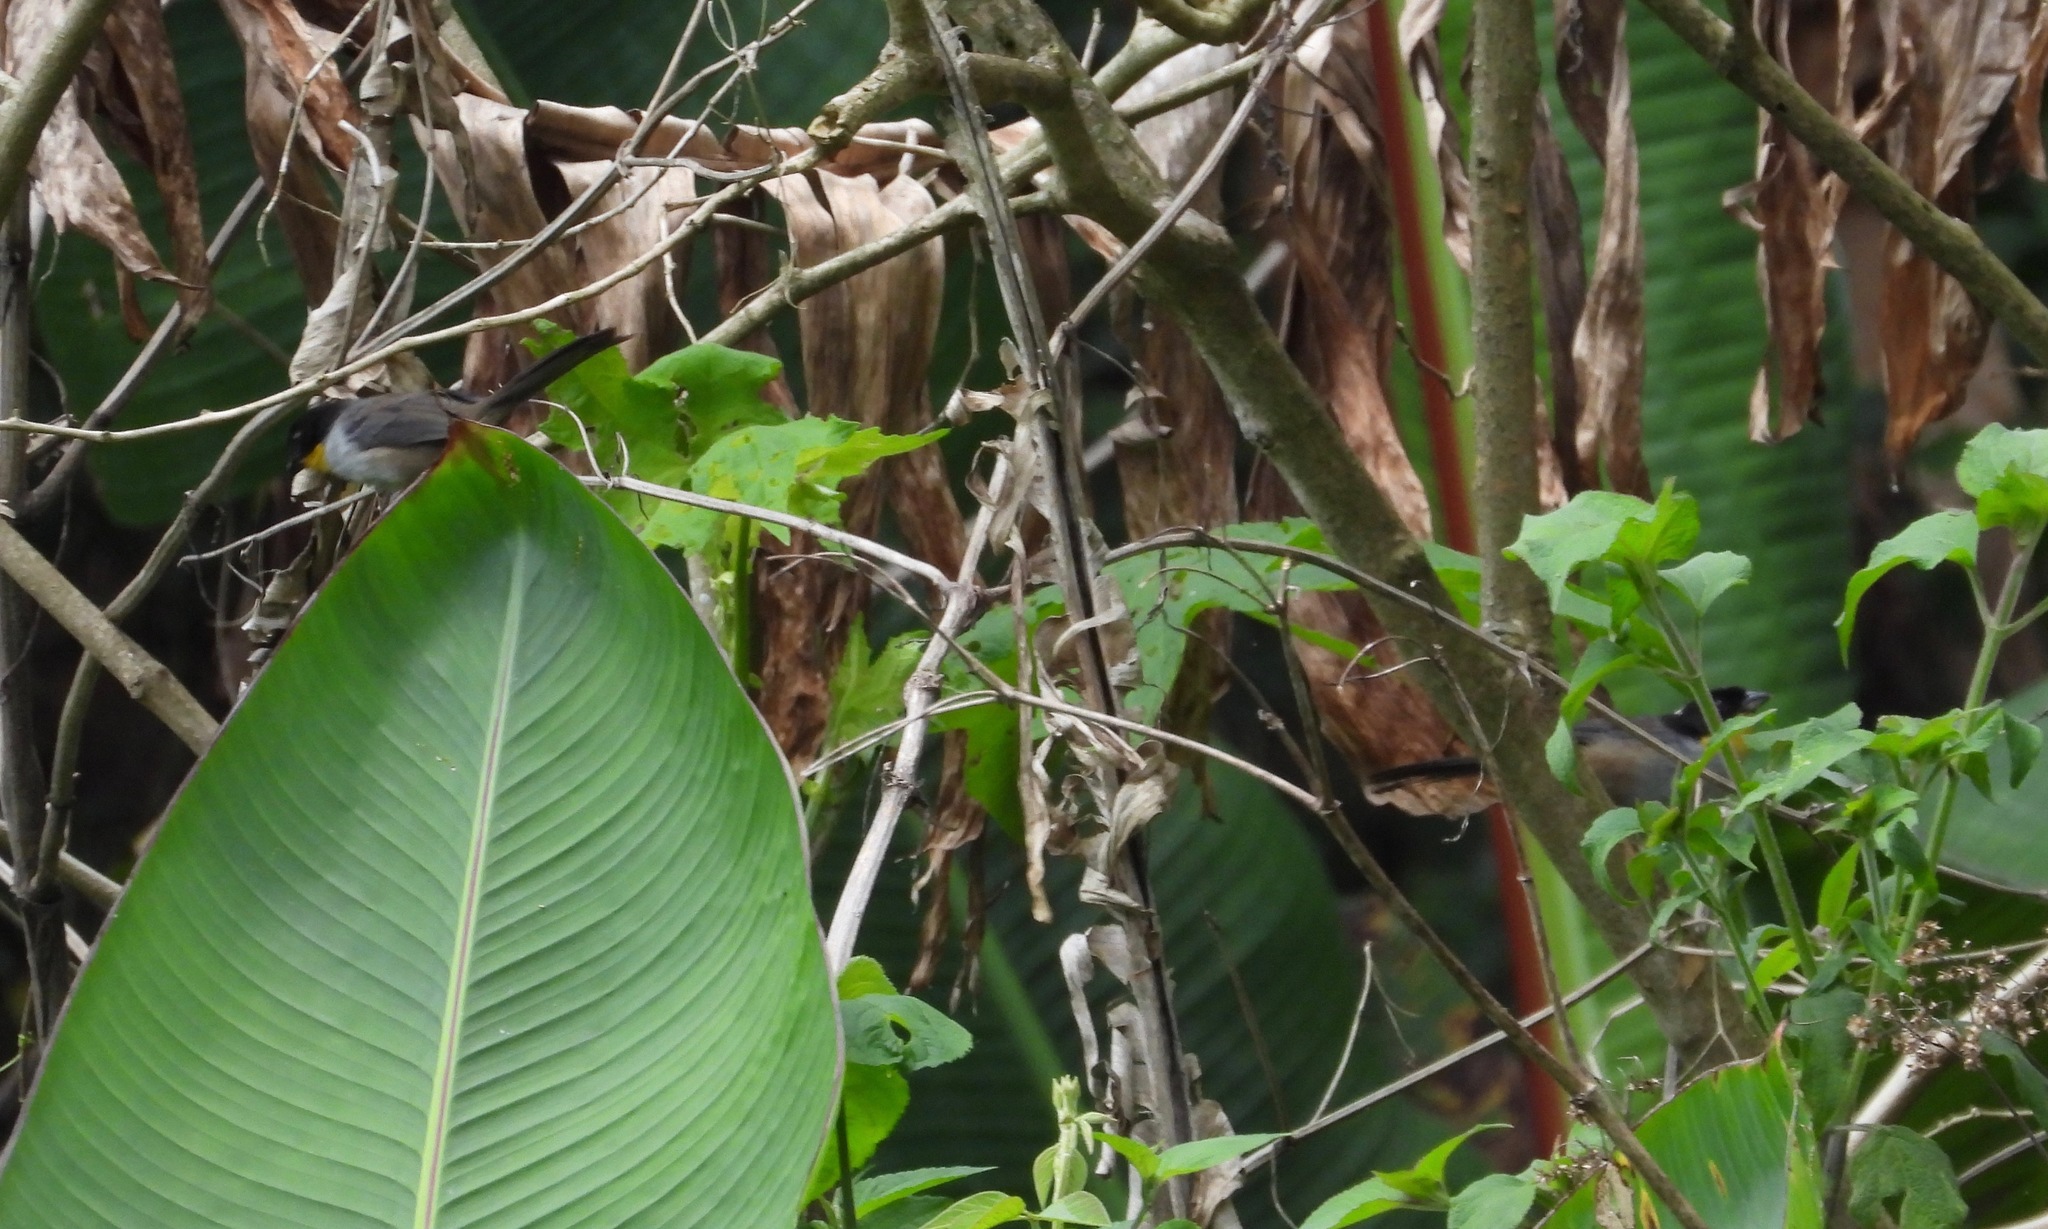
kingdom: Animalia
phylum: Chordata
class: Aves
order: Passeriformes
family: Passerellidae
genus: Atlapetes
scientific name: Atlapetes albinucha
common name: White-naped brush-finch
